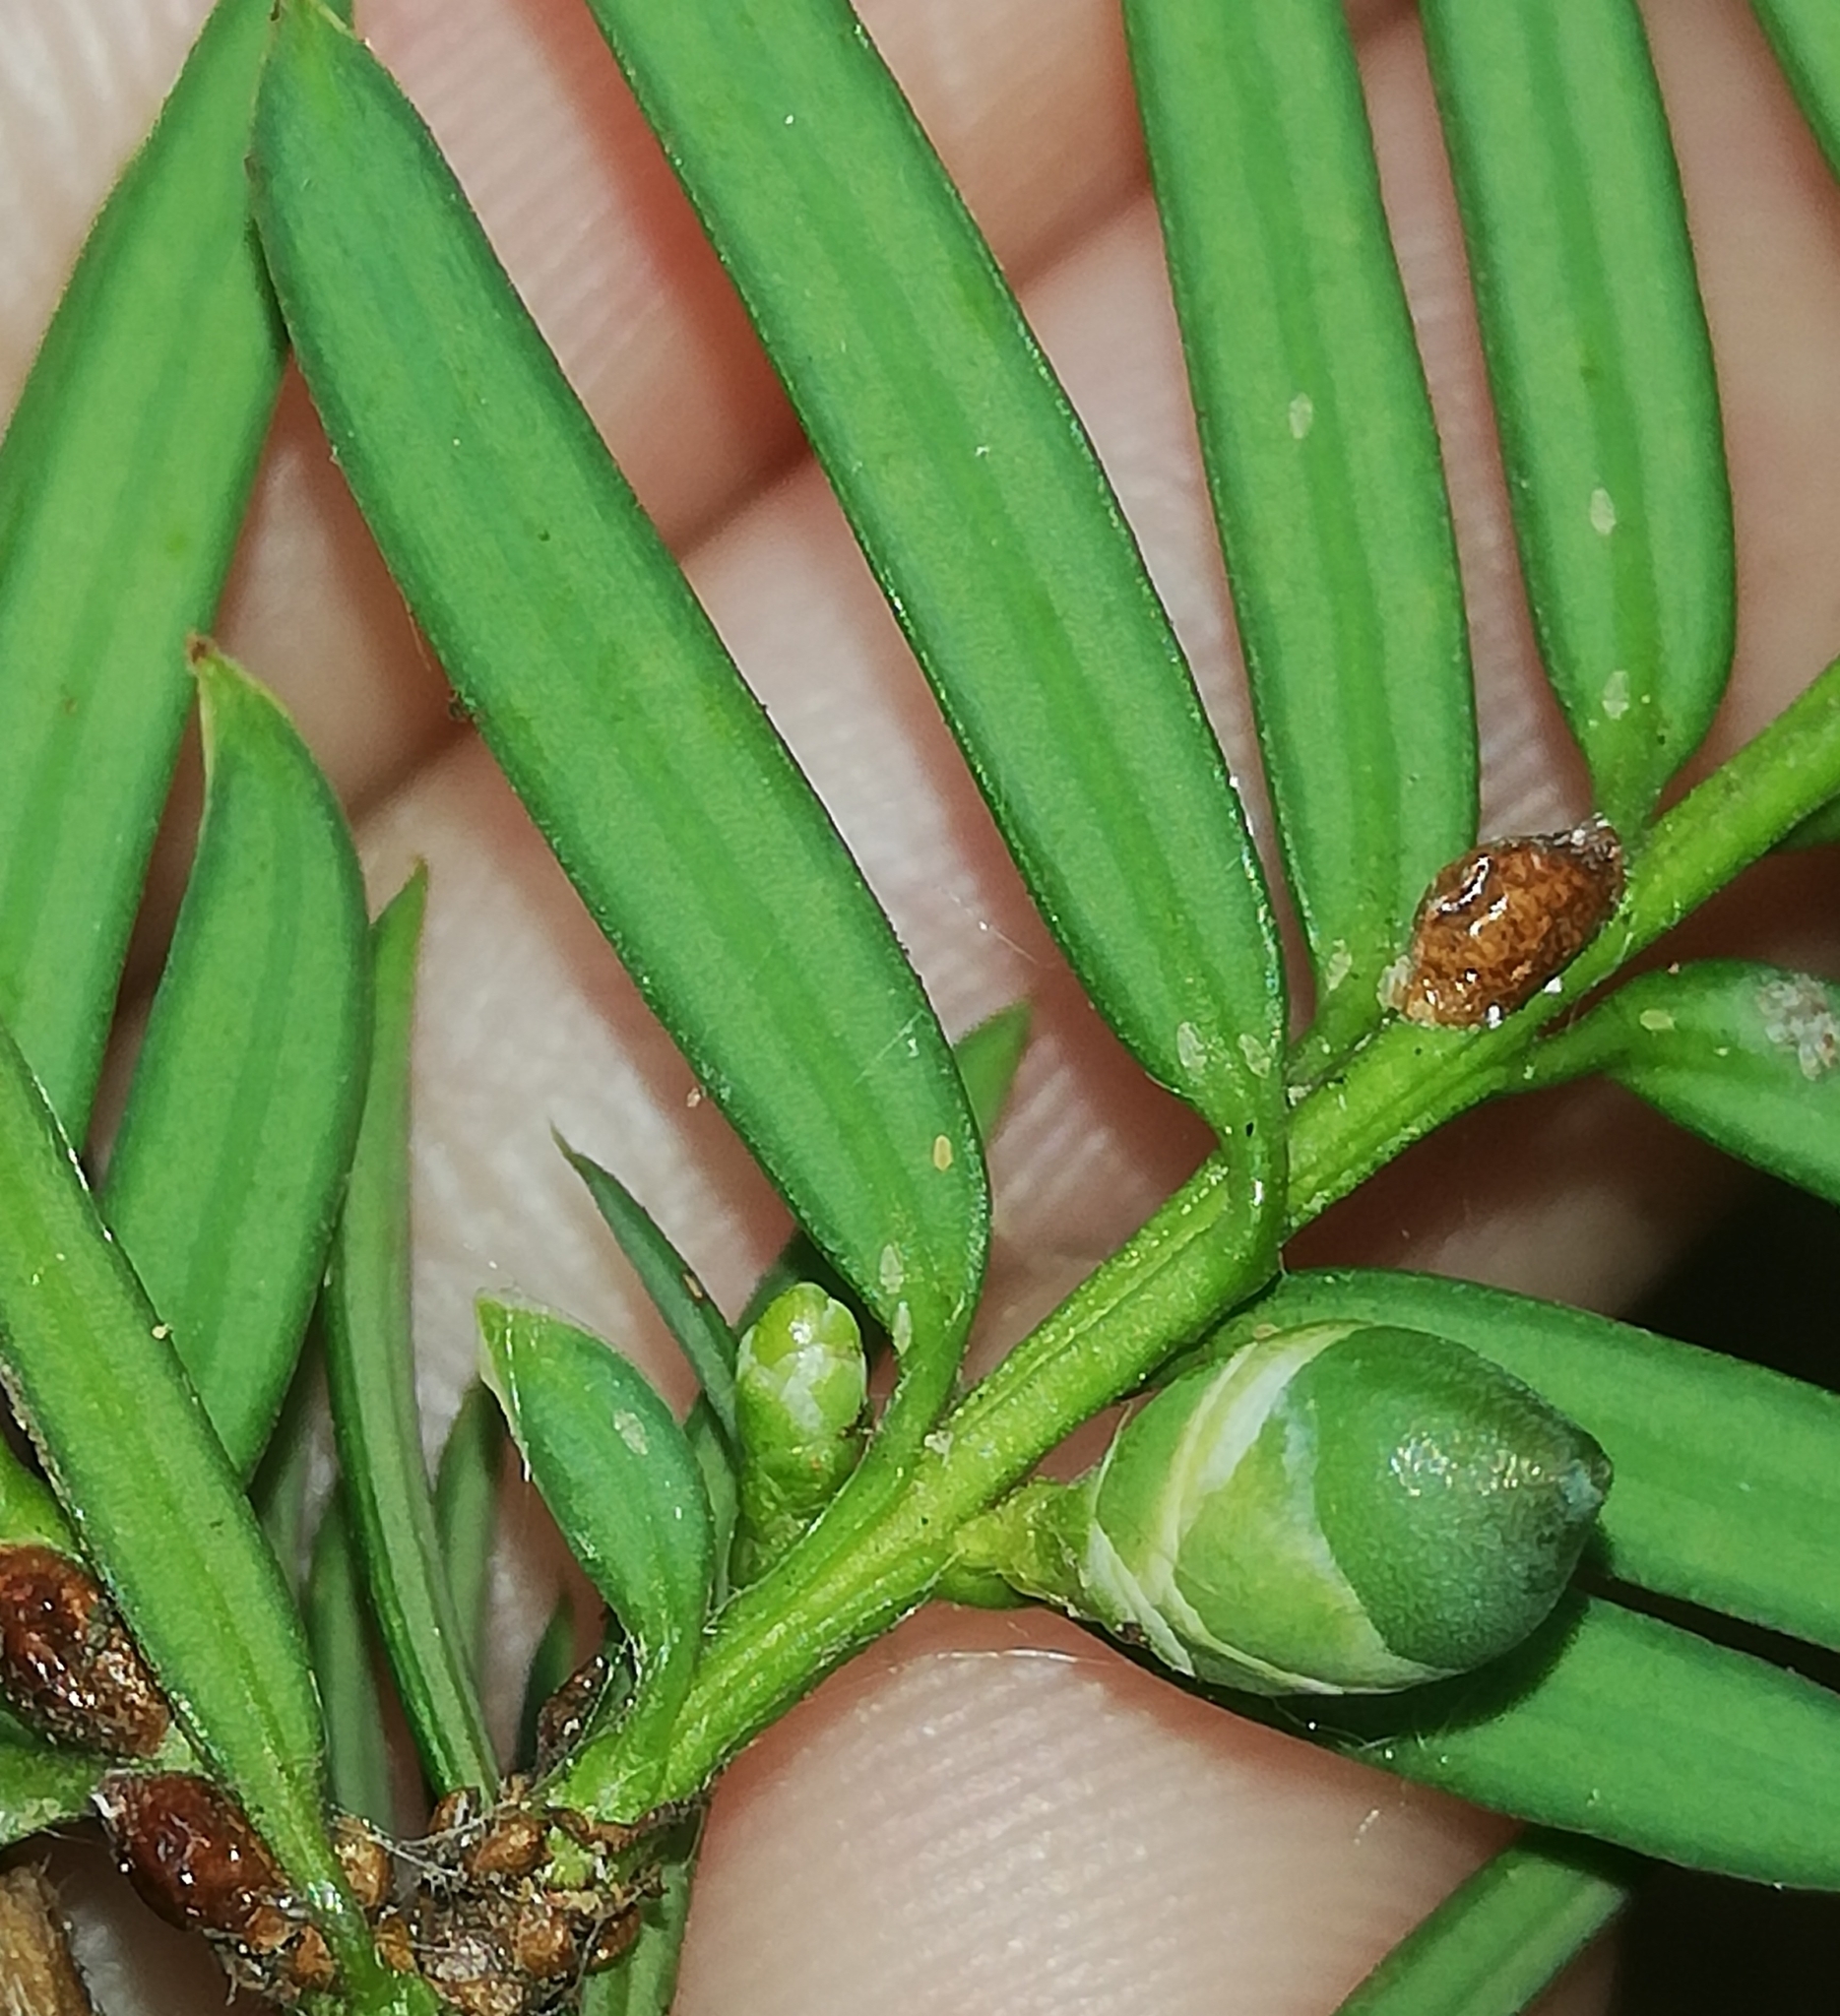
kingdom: Plantae
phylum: Tracheophyta
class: Pinopsida
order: Pinales
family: Taxaceae
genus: Taxus
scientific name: Taxus baccata
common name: Yew
